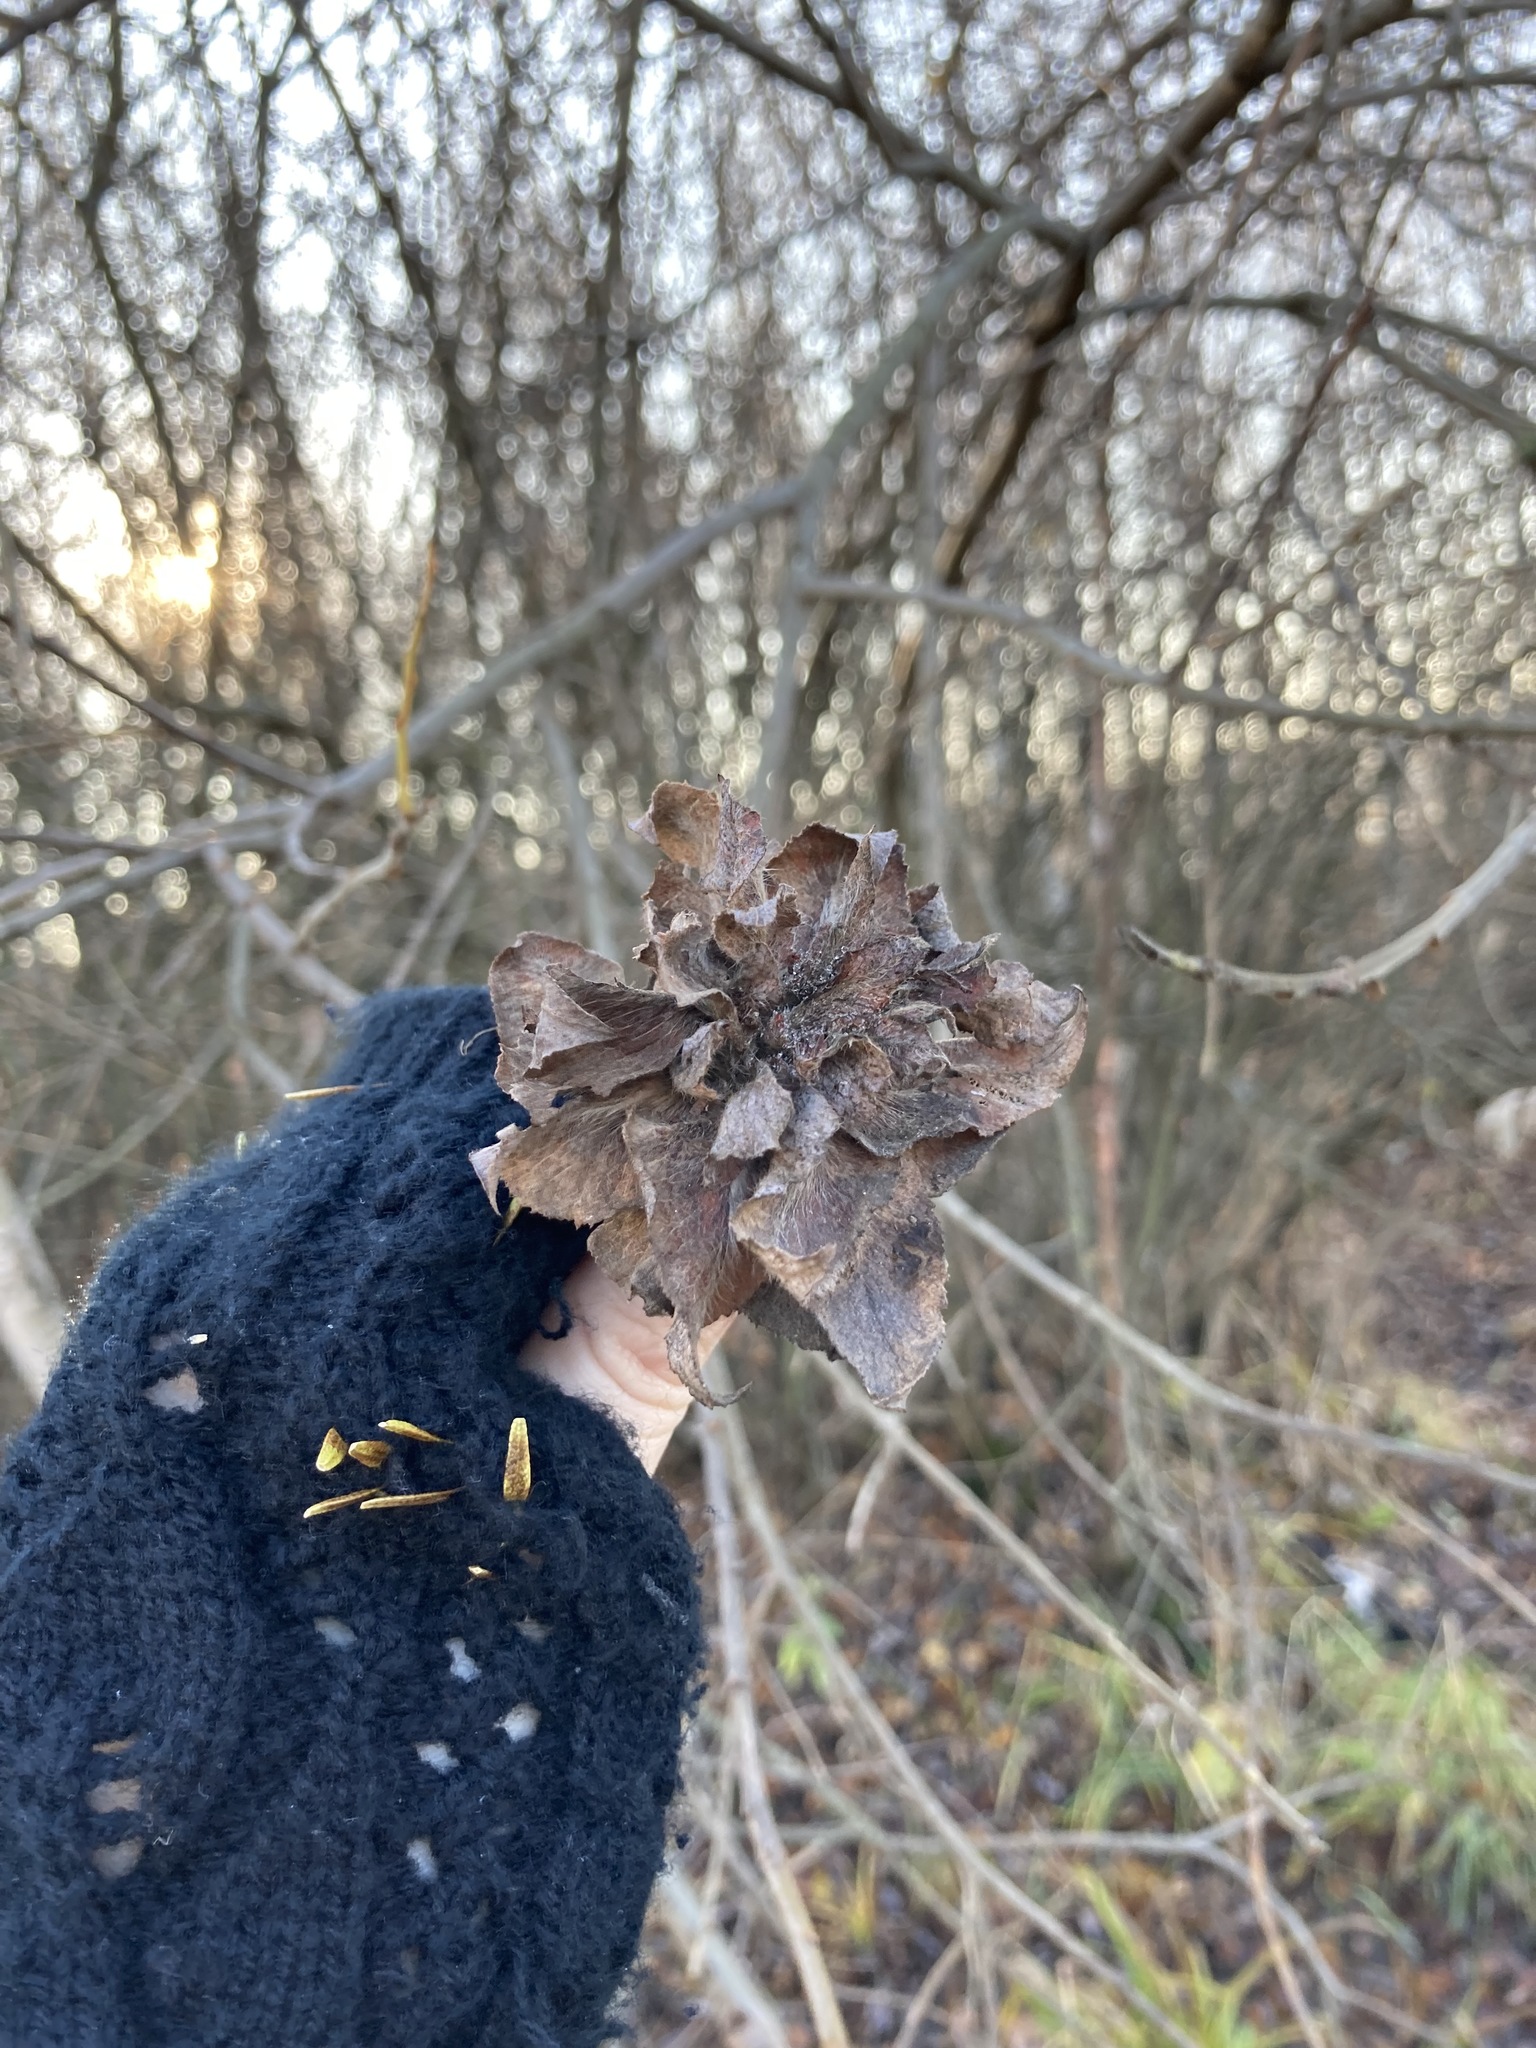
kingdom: Animalia
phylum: Arthropoda
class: Insecta
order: Diptera
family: Cecidomyiidae
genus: Rabdophaga
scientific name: Rabdophaga rosaria
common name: Willow rose gall midge
